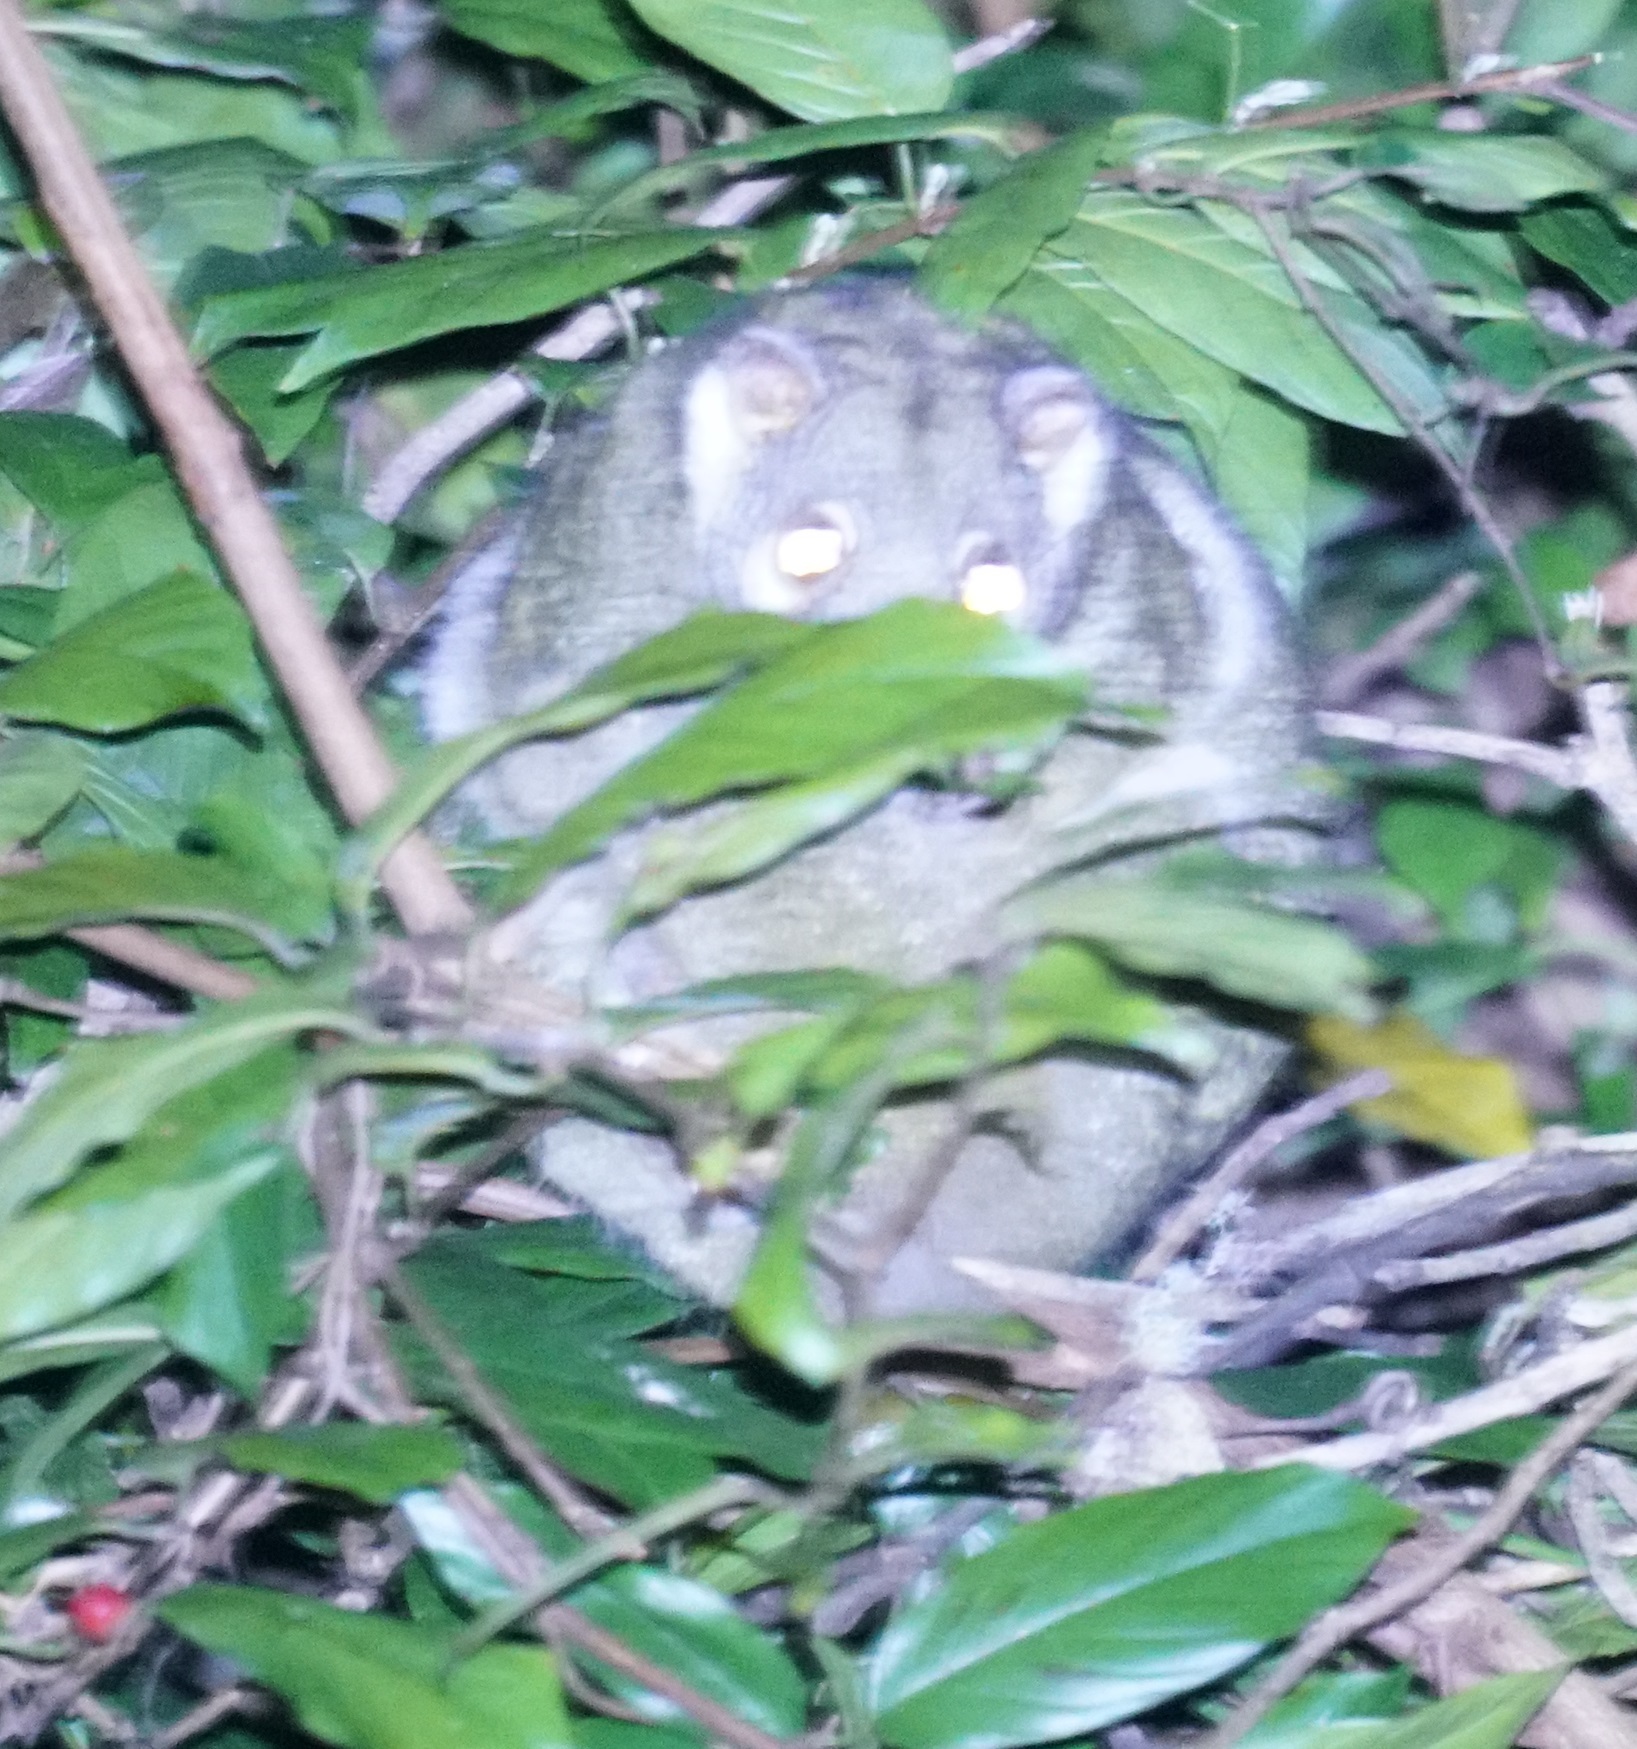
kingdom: Animalia
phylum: Chordata
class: Mammalia
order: Diprotodontia
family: Pseudocheiridae
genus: Pseudochirops
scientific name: Pseudochirops archeri
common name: Green ringtail
